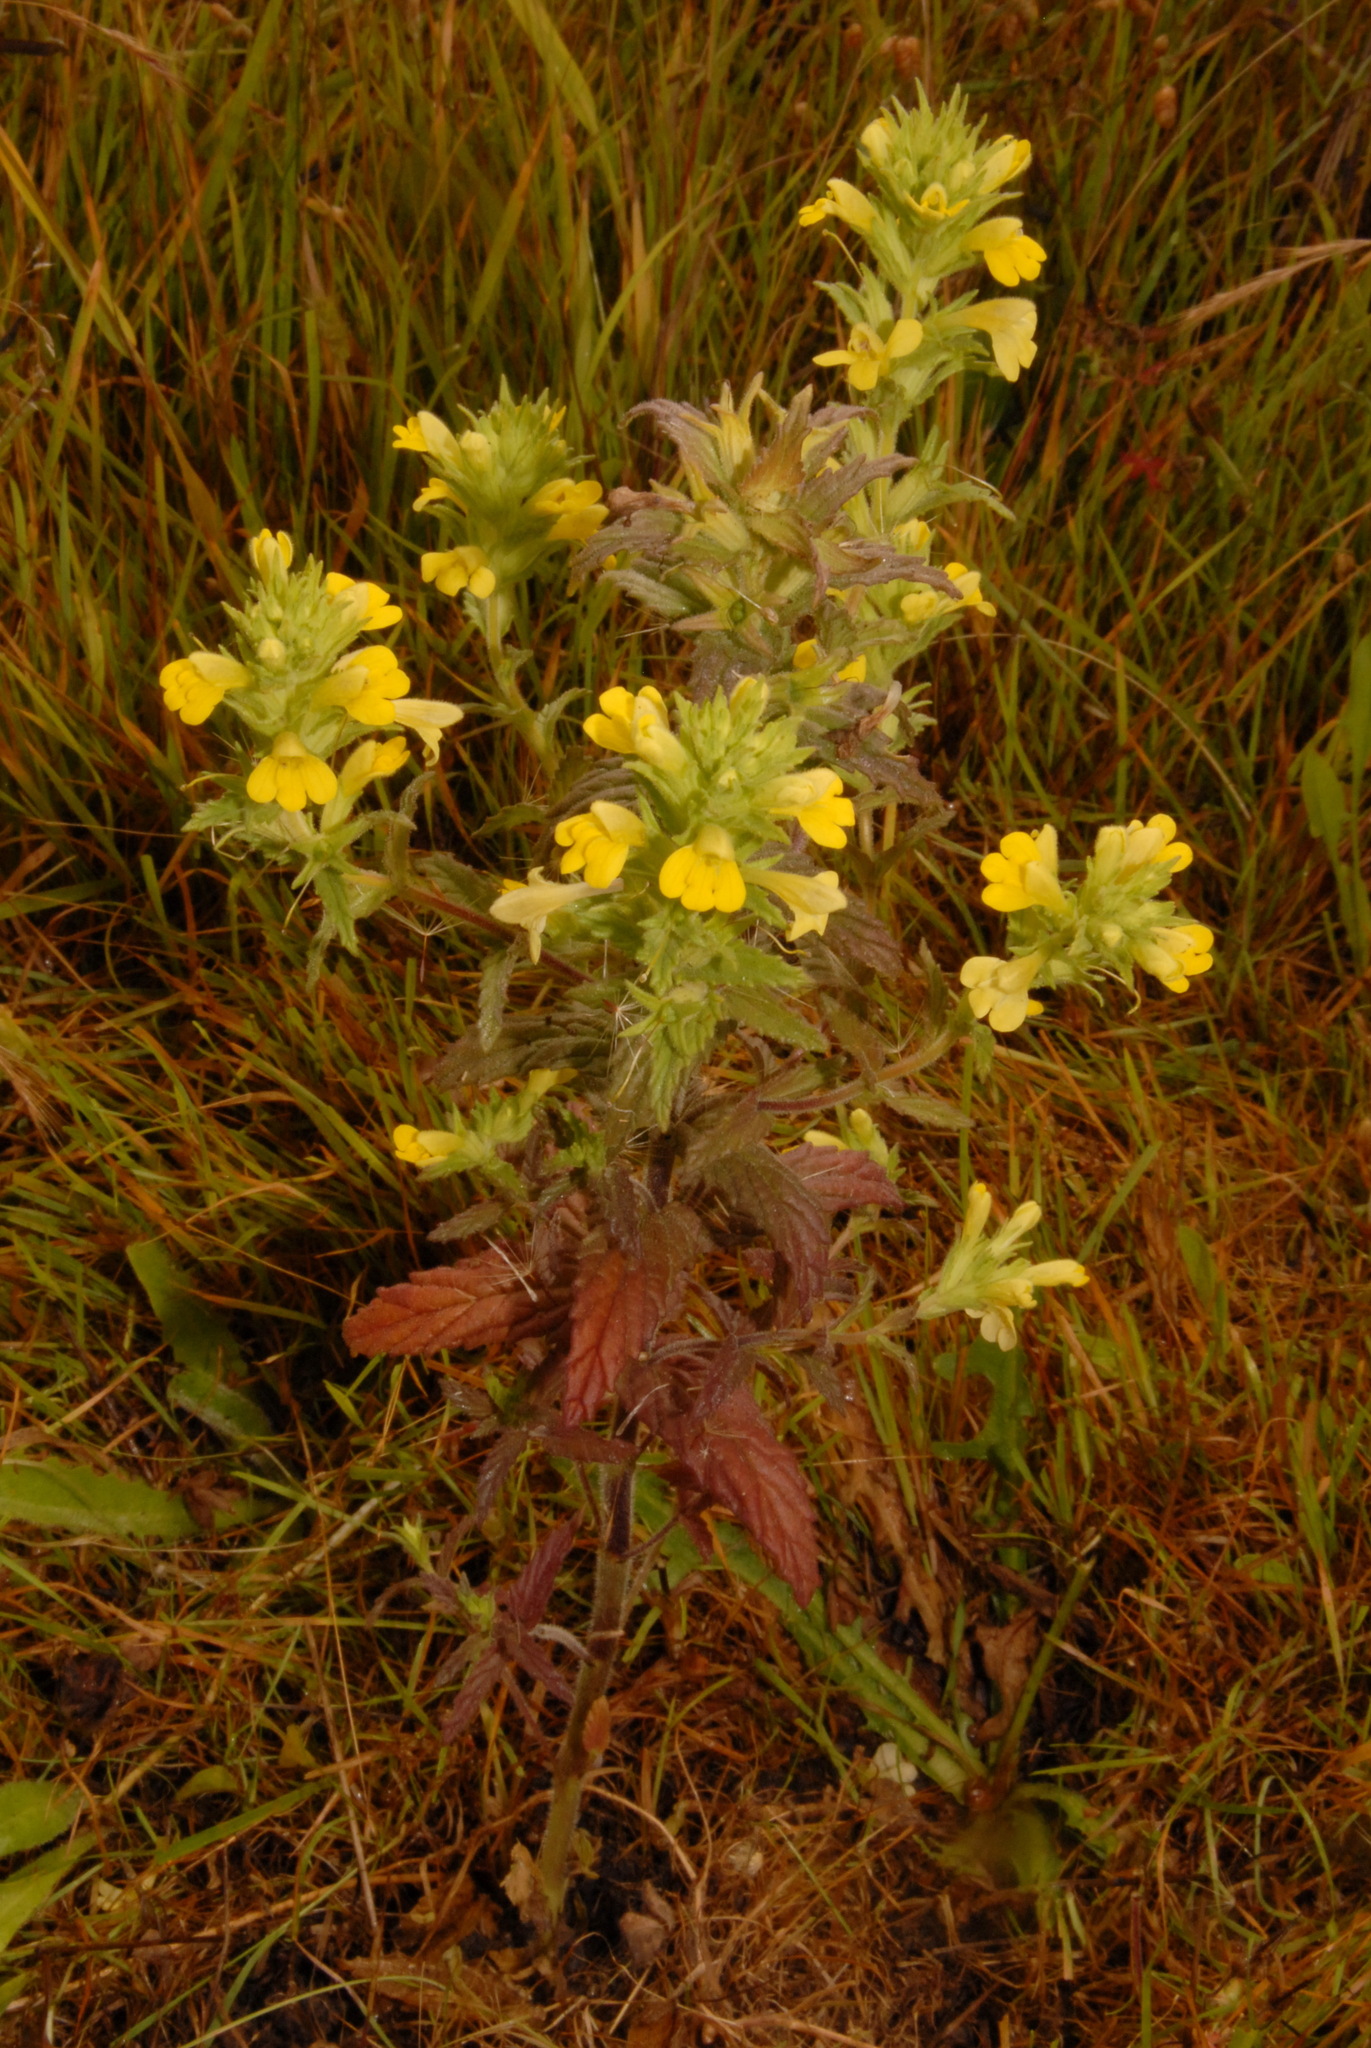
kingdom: Plantae
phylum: Tracheophyta
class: Magnoliopsida
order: Lamiales
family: Orobanchaceae
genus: Bellardia
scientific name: Bellardia viscosa
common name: Sticky parentucellia
